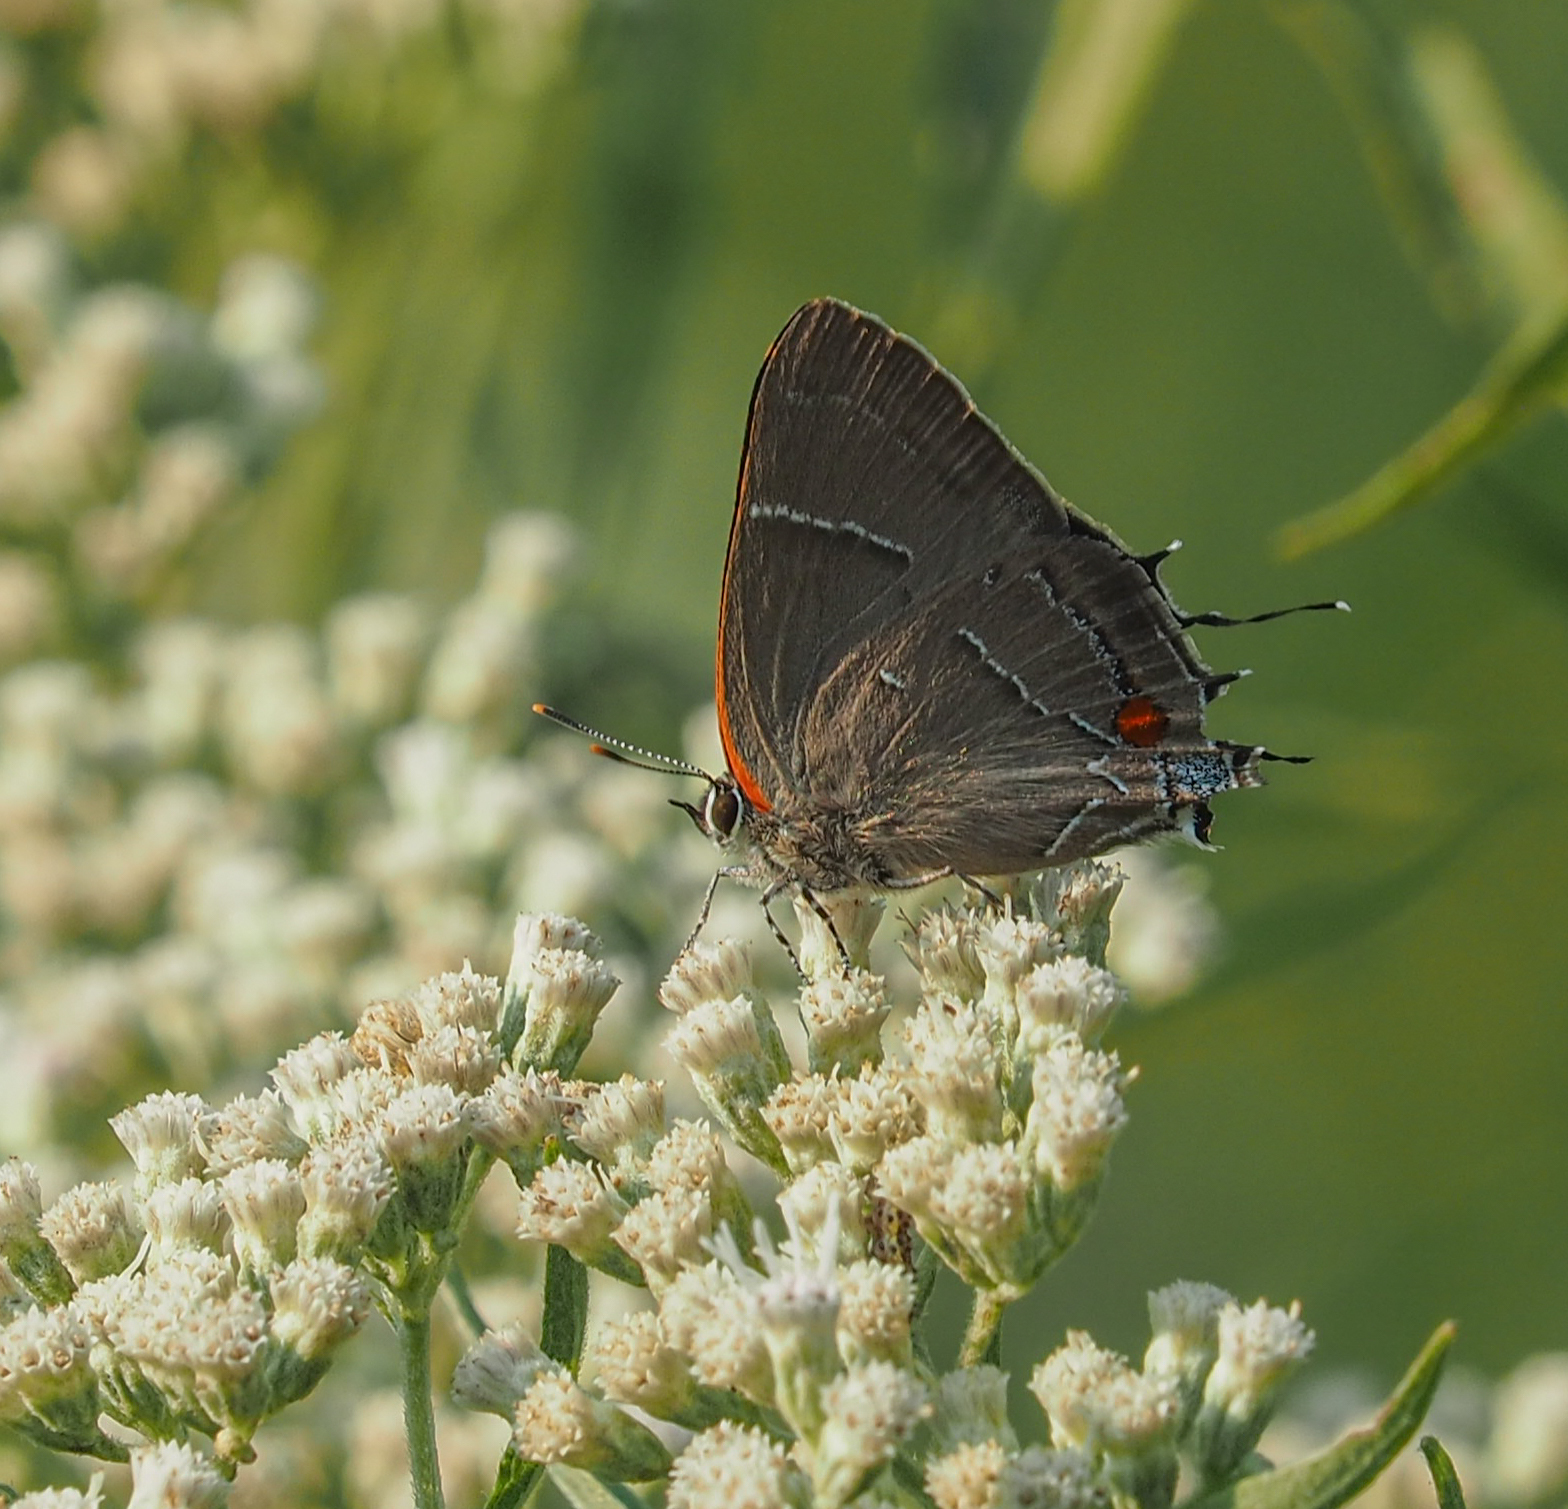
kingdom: Animalia
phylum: Arthropoda
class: Insecta
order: Lepidoptera
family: Lycaenidae
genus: Parrhasius
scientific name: Parrhasius m-album
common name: White m hairstreak
